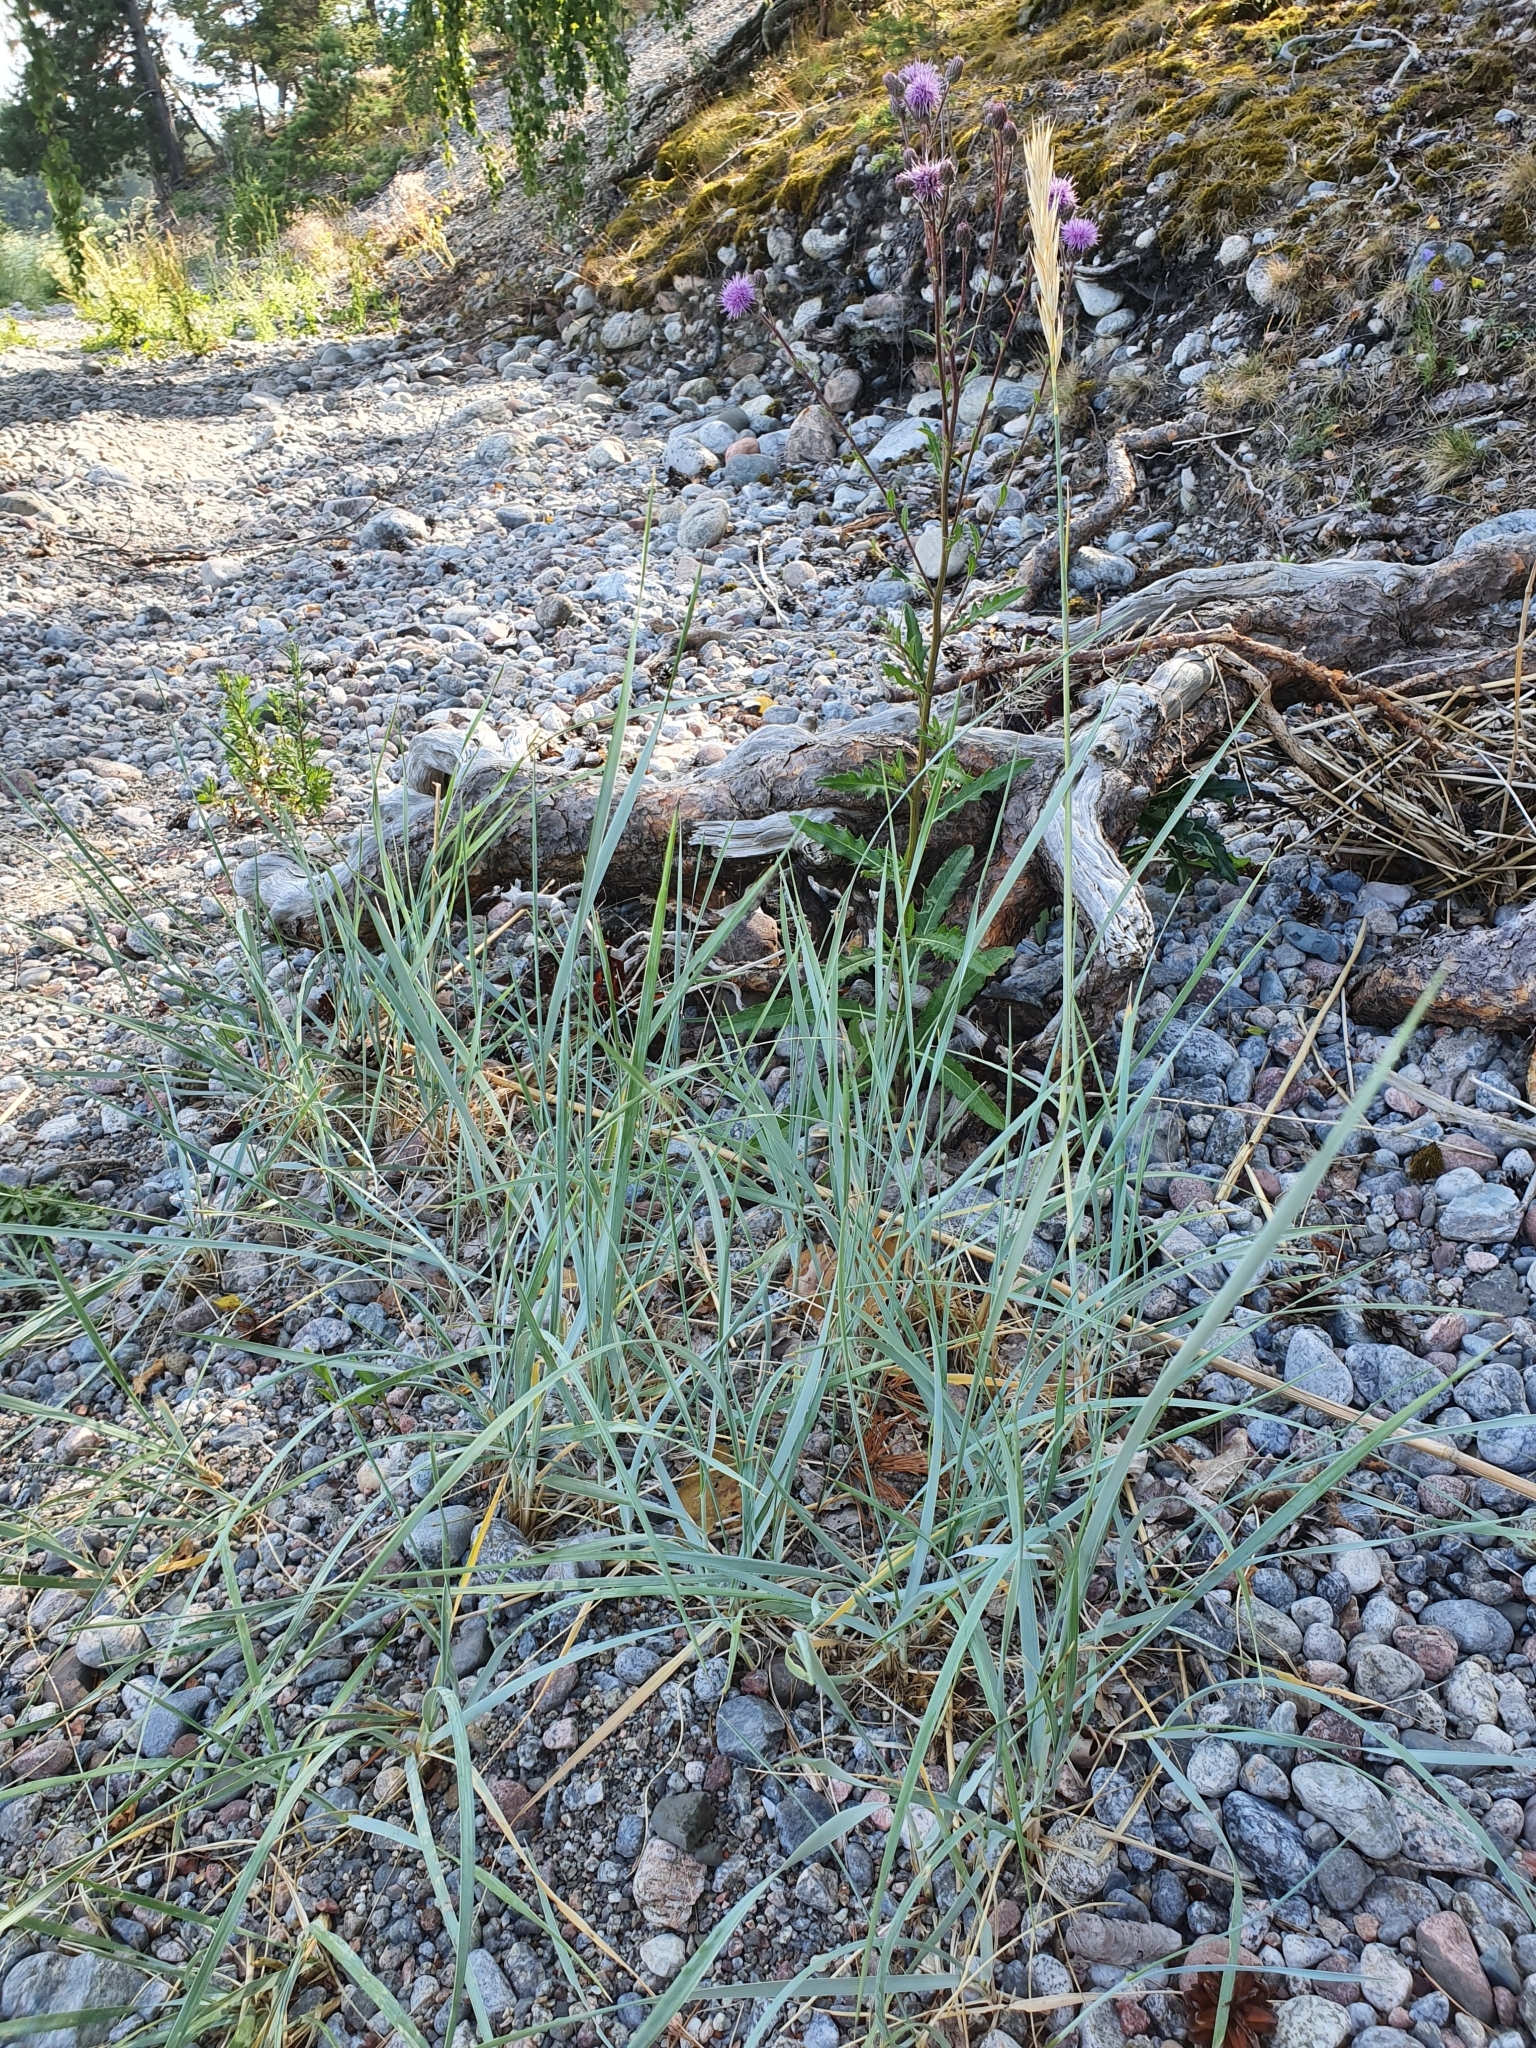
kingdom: Plantae
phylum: Tracheophyta
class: Liliopsida
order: Poales
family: Poaceae
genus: Leymus
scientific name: Leymus arenarius
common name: Lyme-grass
